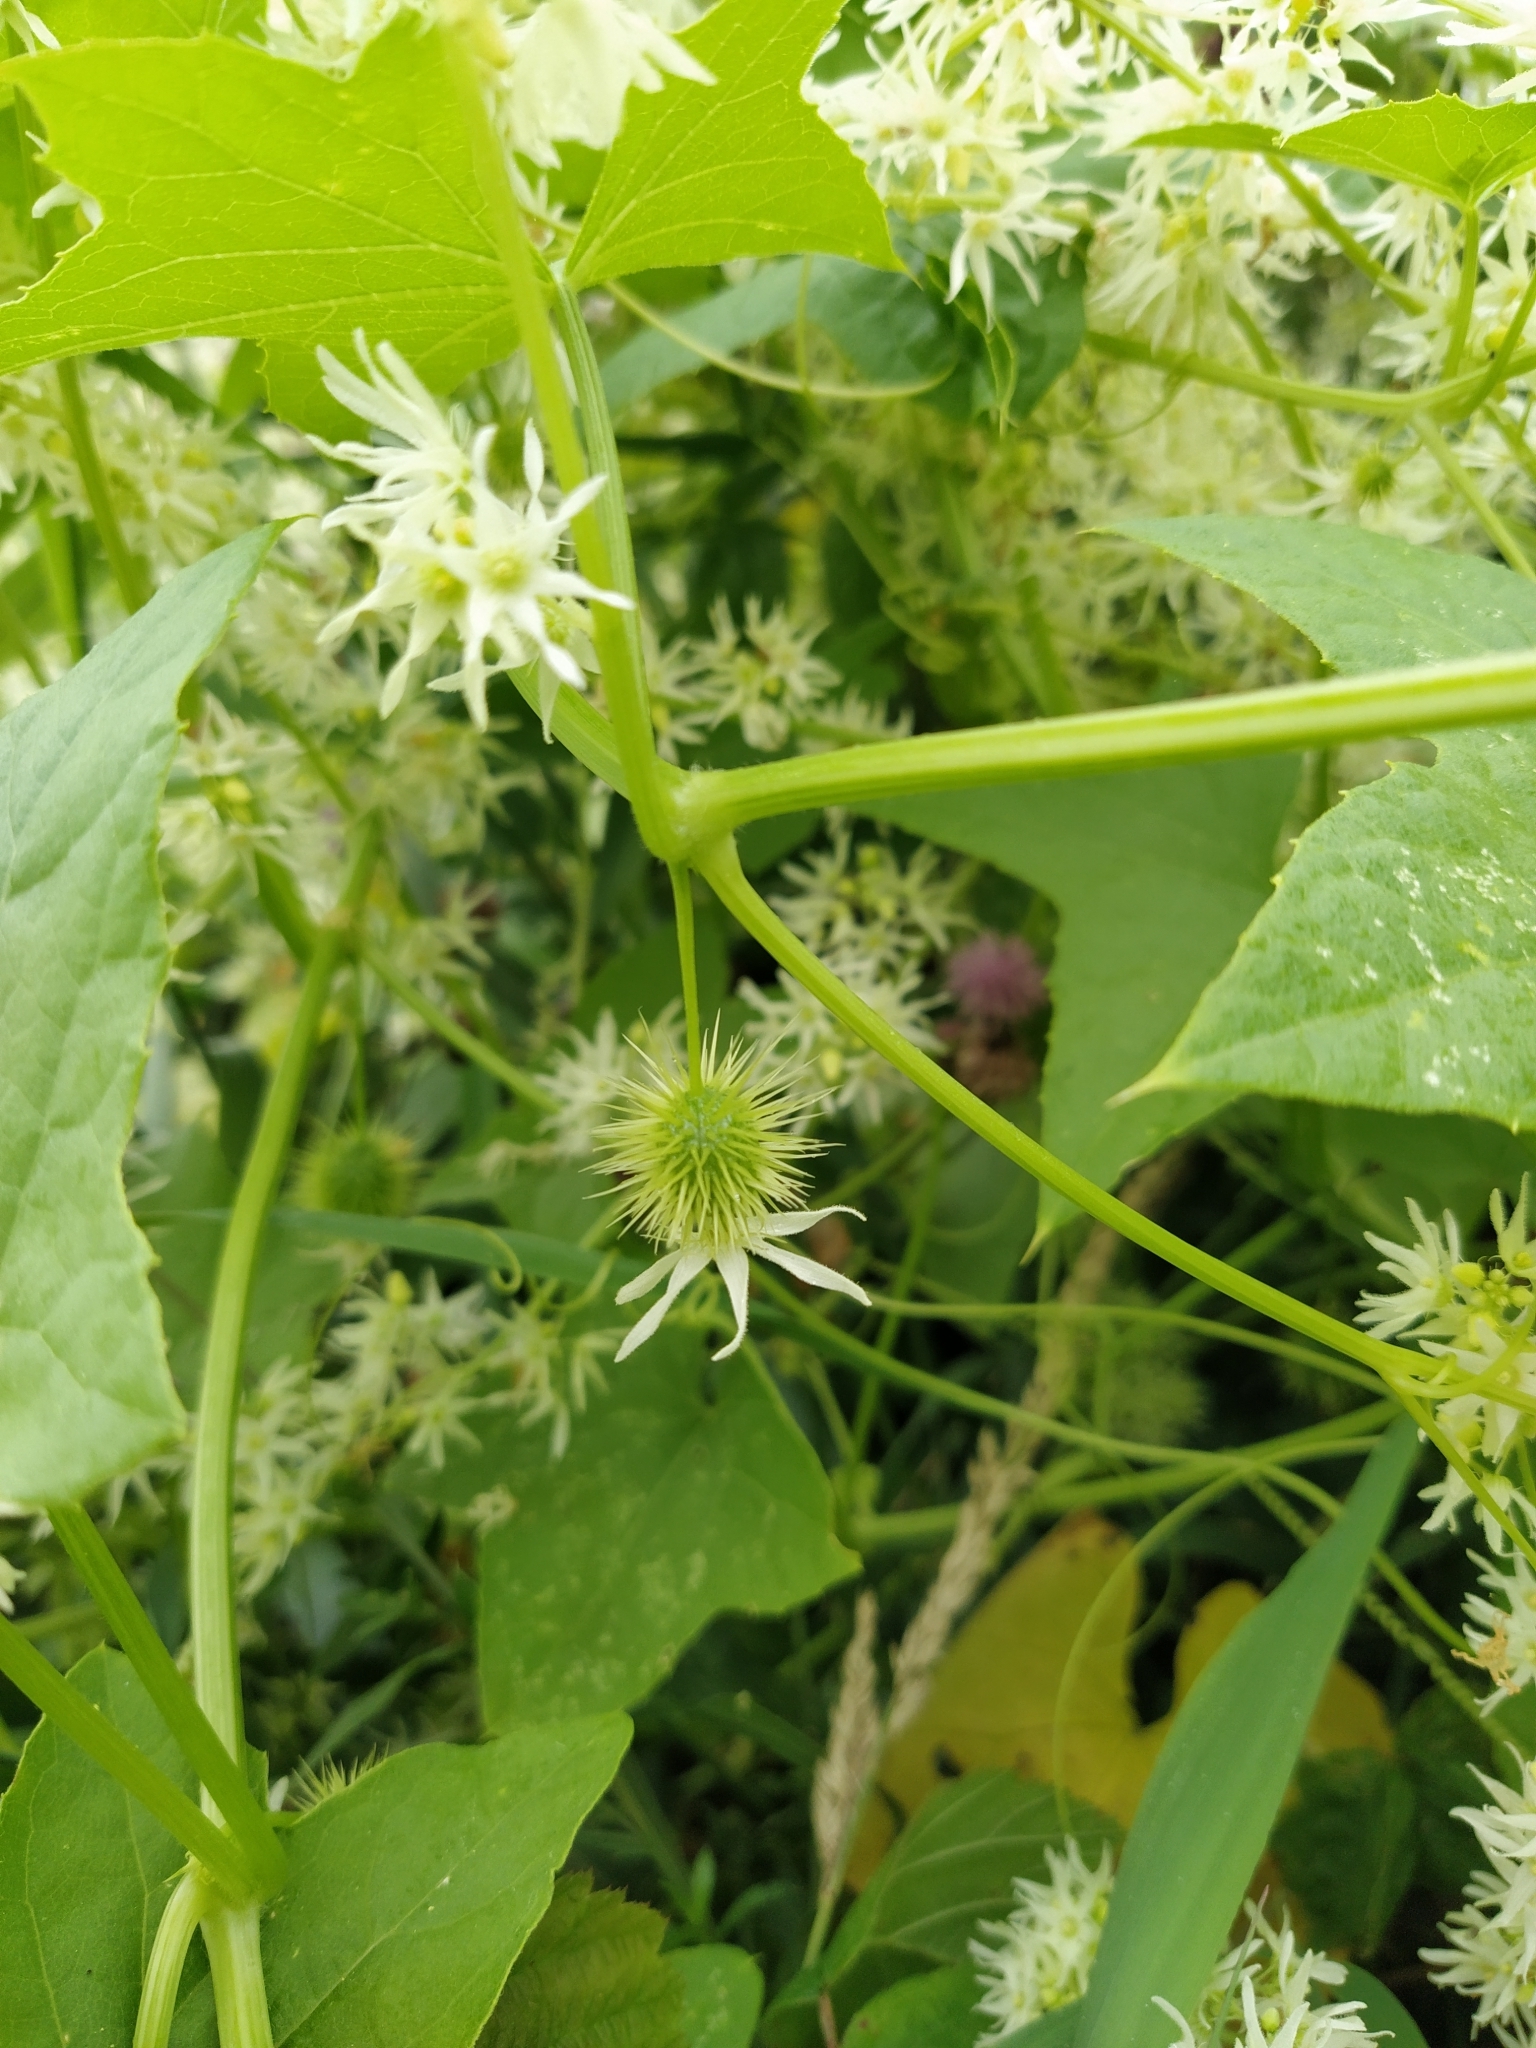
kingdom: Plantae
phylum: Tracheophyta
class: Magnoliopsida
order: Cucurbitales
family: Cucurbitaceae
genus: Echinocystis
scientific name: Echinocystis lobata
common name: Wild cucumber
